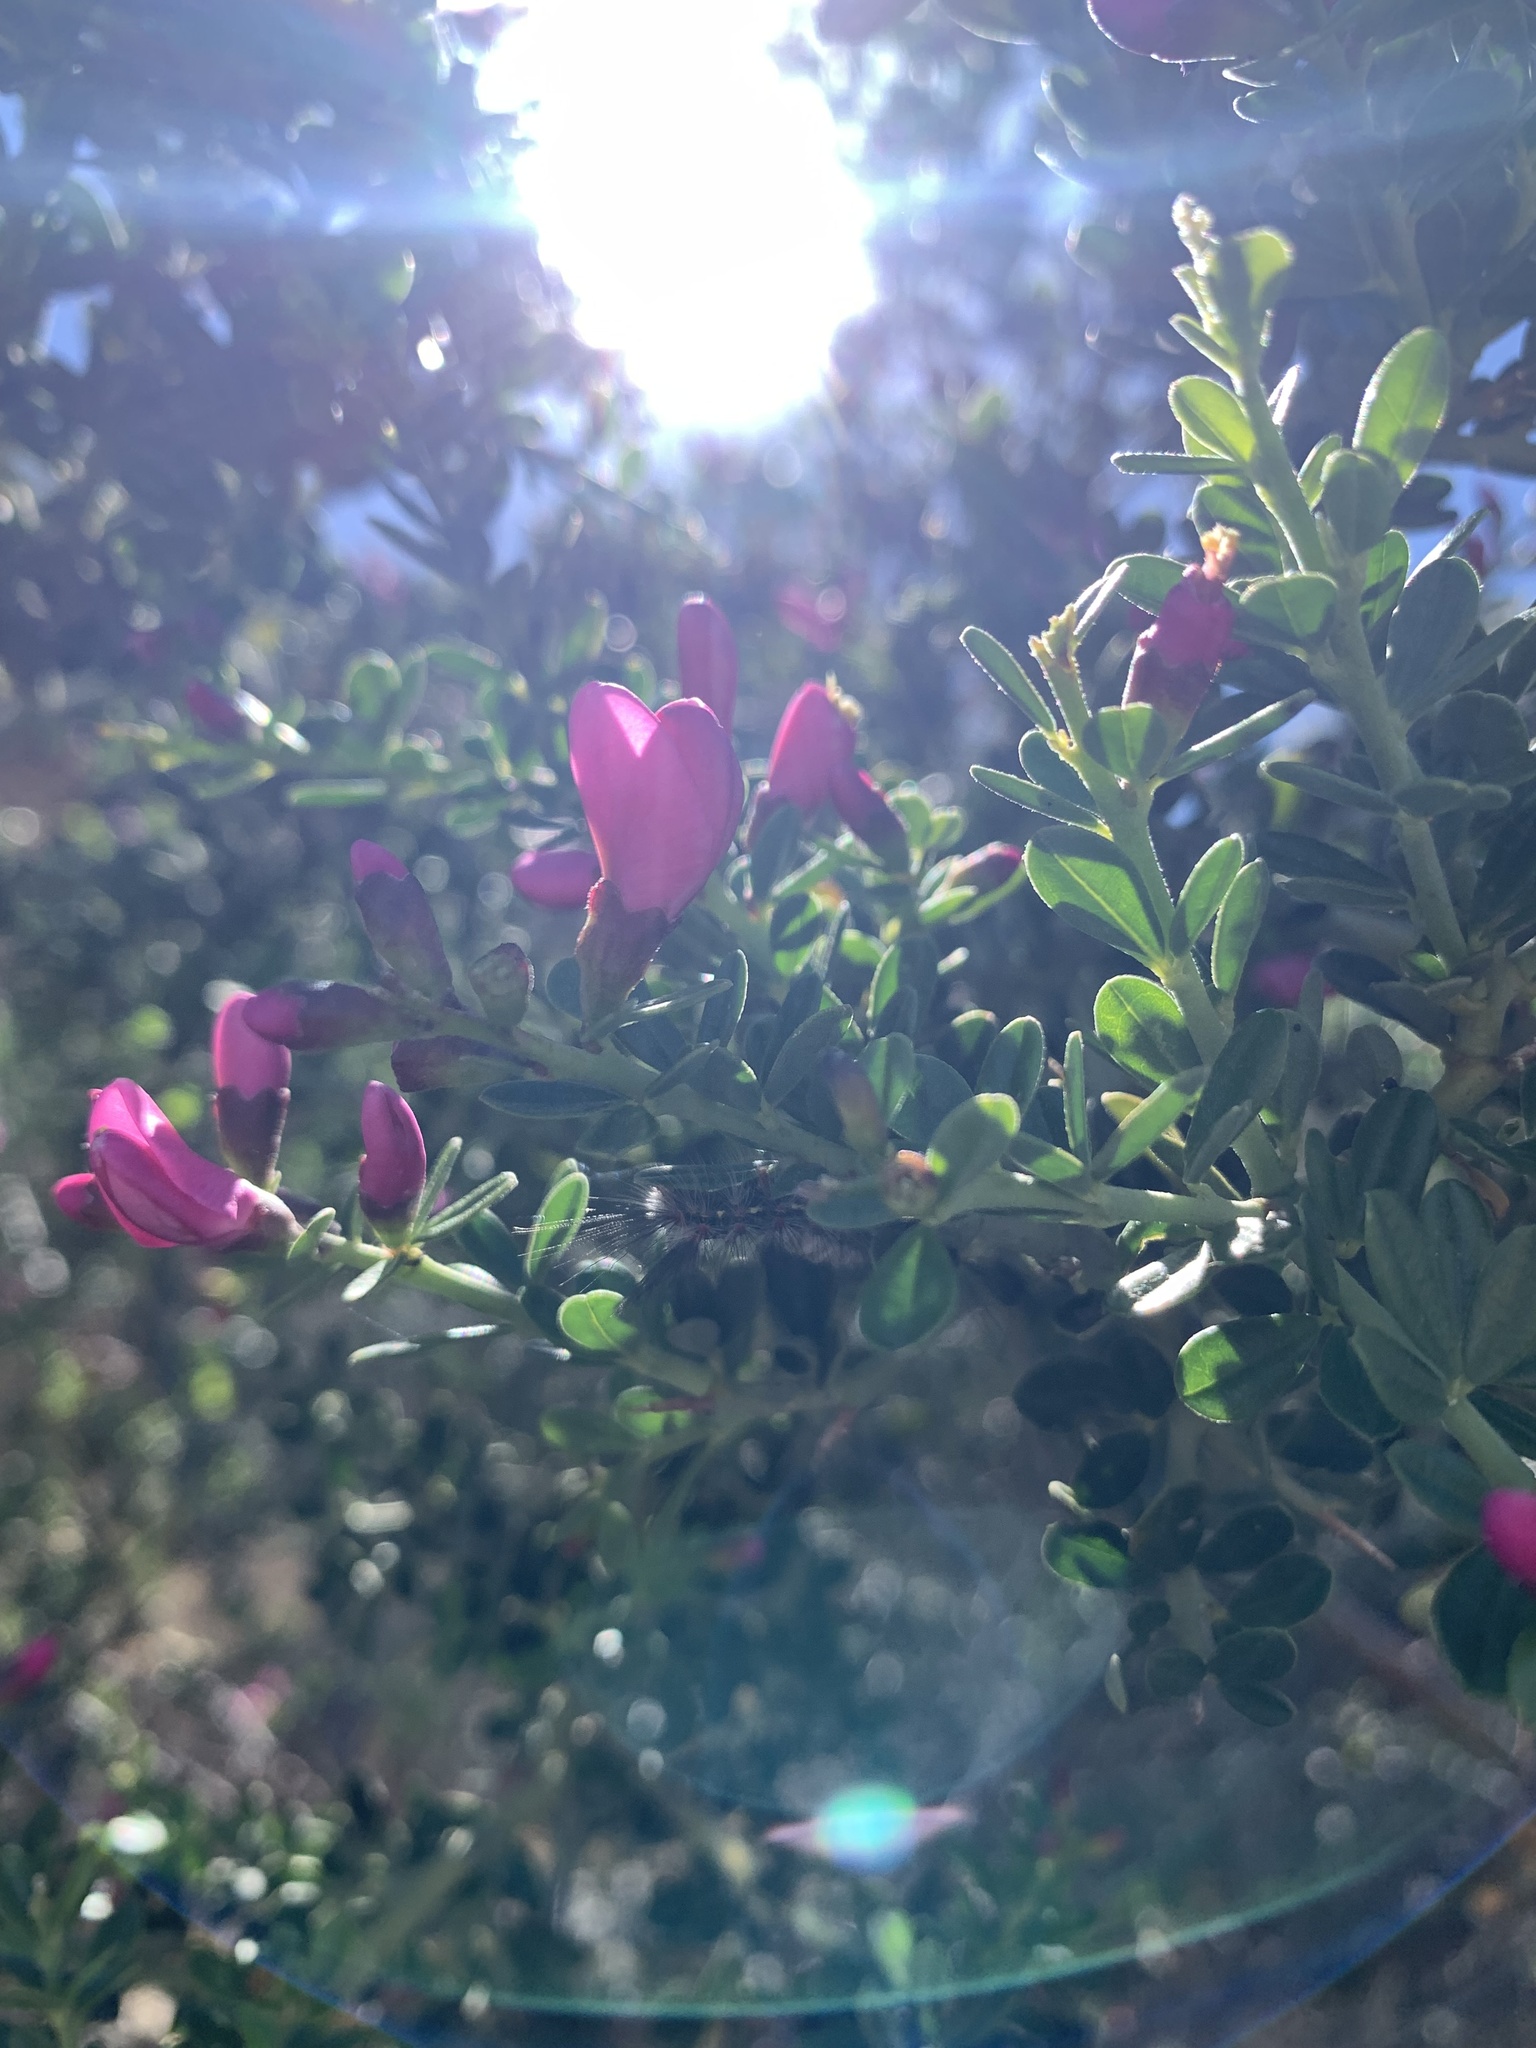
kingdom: Plantae
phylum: Tracheophyta
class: Magnoliopsida
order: Fabales
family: Fabaceae
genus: Pickeringia
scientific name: Pickeringia montana
